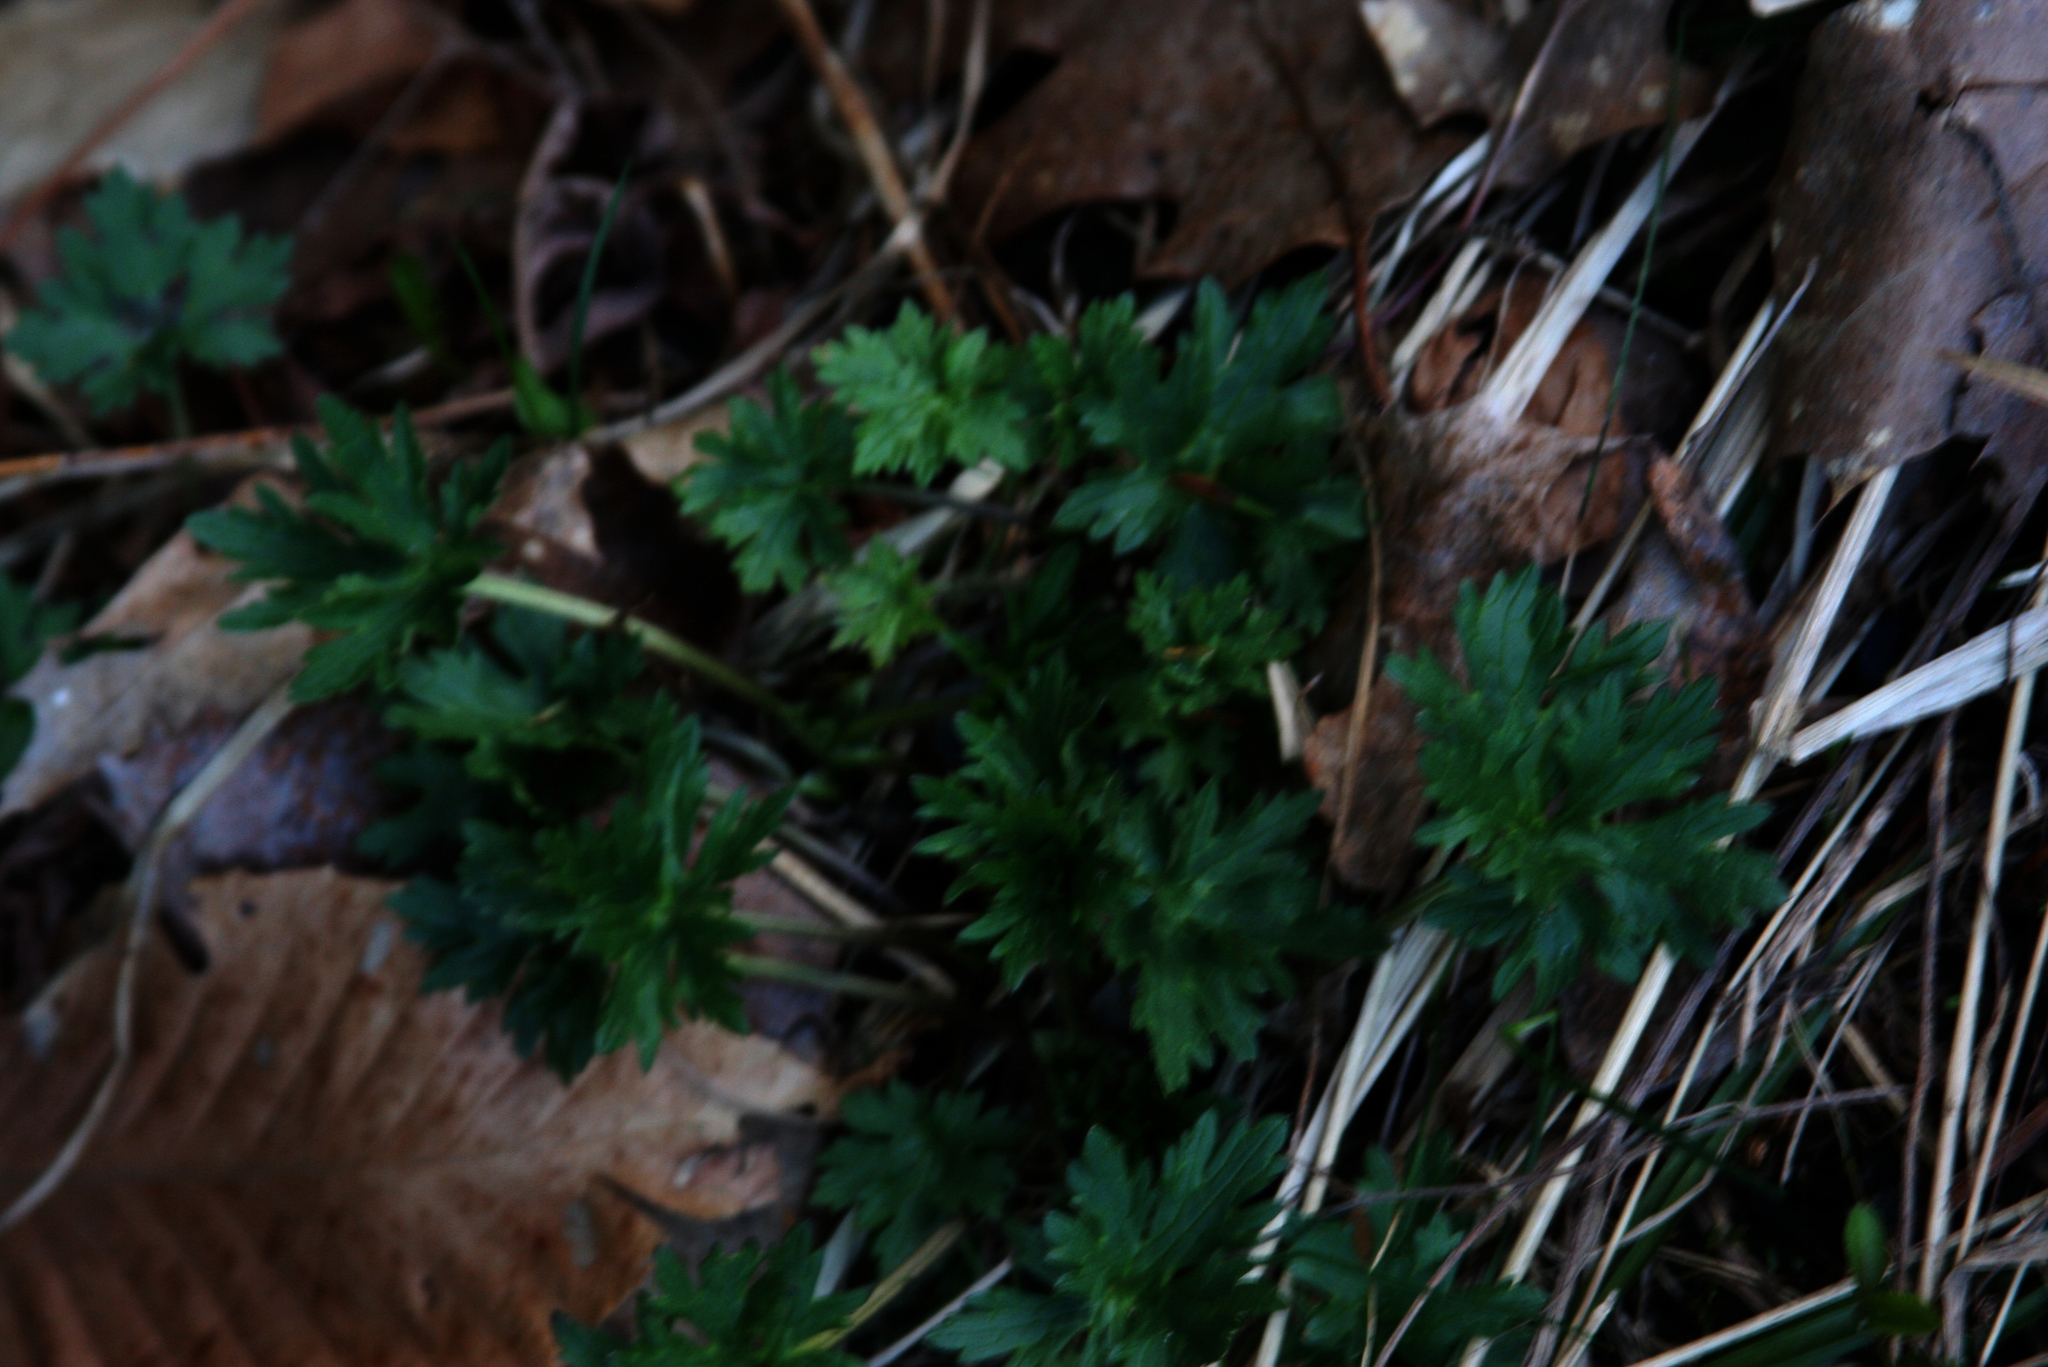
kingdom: Plantae
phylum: Tracheophyta
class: Magnoliopsida
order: Ranunculales
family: Ranunculaceae
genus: Ranunculus
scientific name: Ranunculus acris
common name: Meadow buttercup
